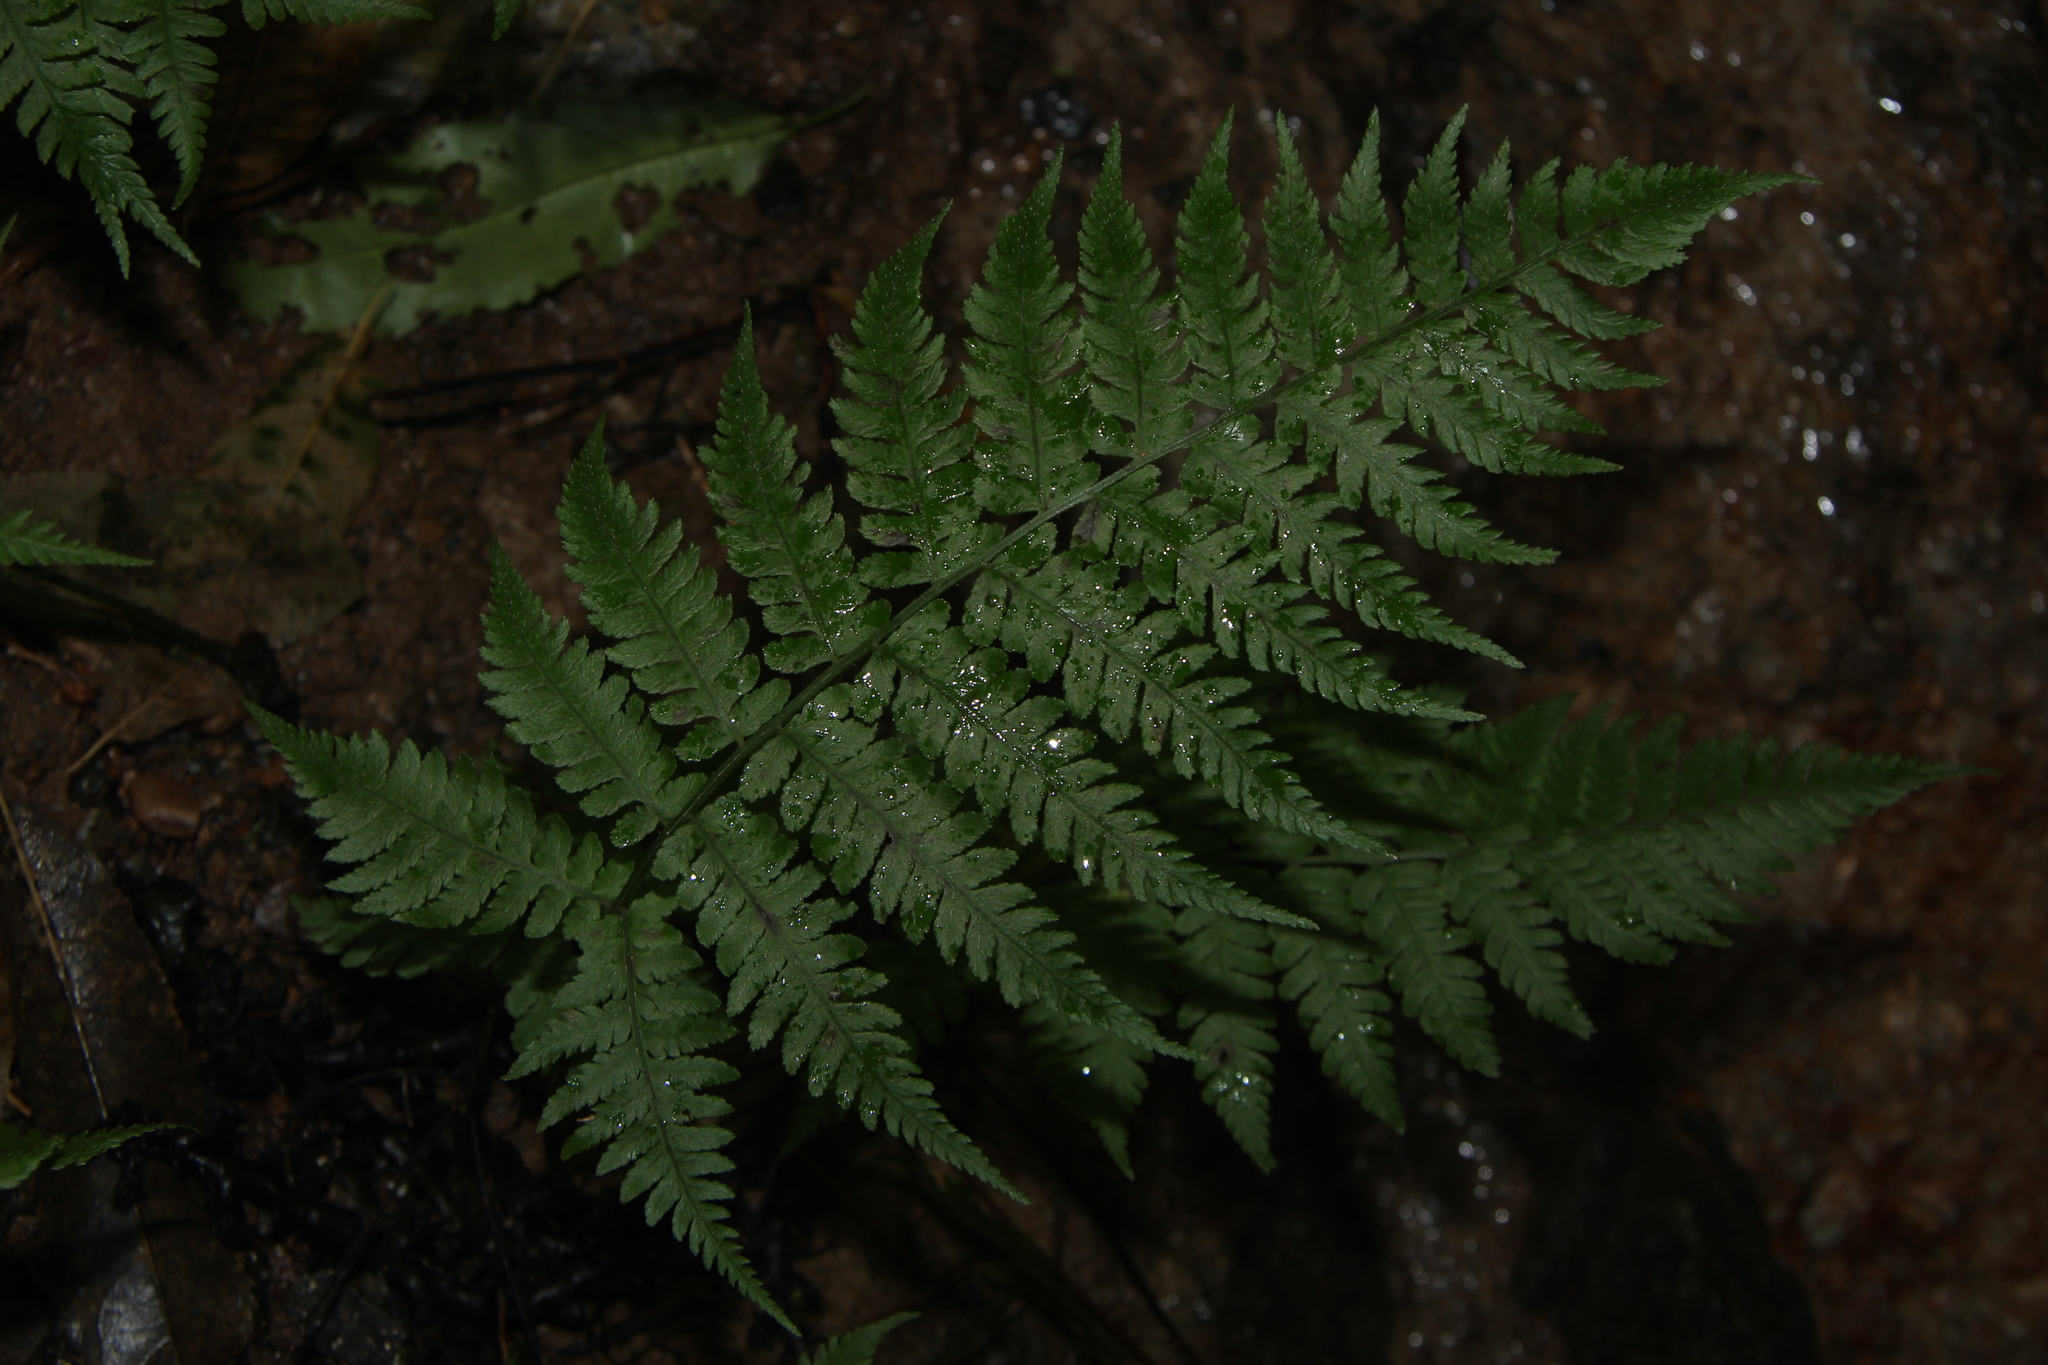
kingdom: Plantae
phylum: Tracheophyta
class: Polypodiopsida
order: Polypodiales
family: Athyriaceae
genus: Diplazium
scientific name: Diplazium congruum
